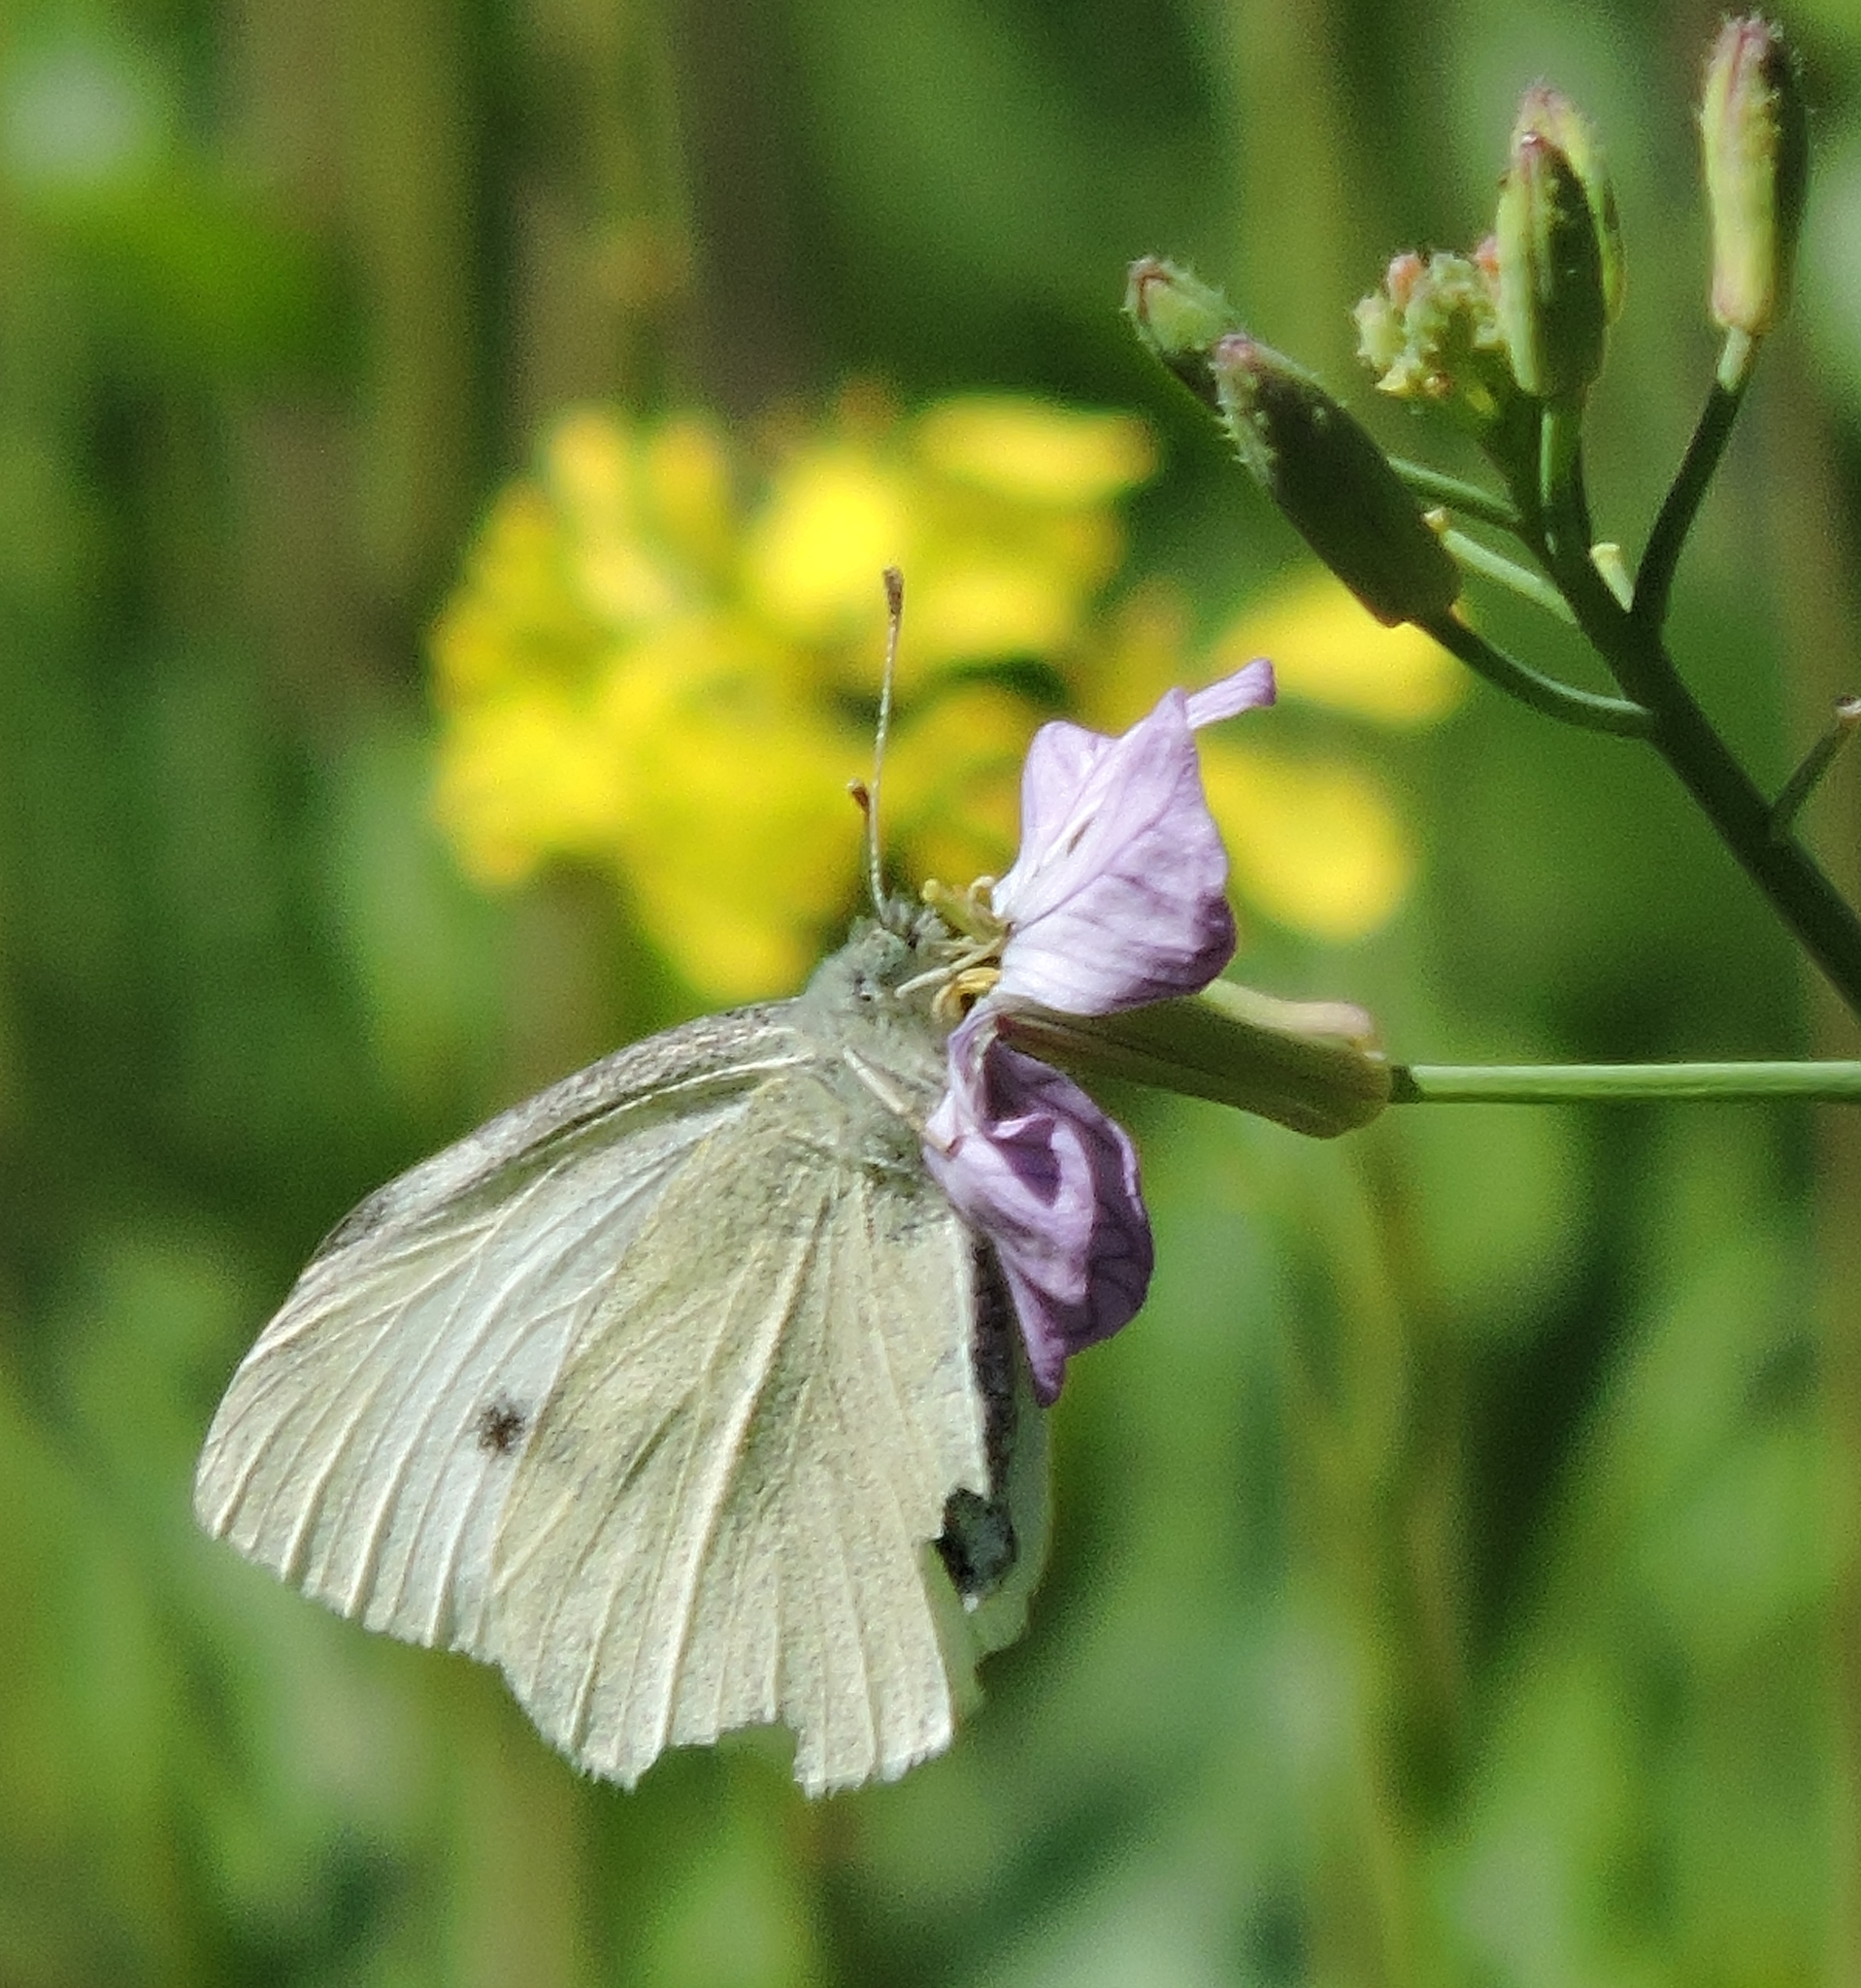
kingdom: Animalia
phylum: Arthropoda
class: Insecta
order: Lepidoptera
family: Pieridae
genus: Pieris
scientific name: Pieris rapae
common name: Small white
